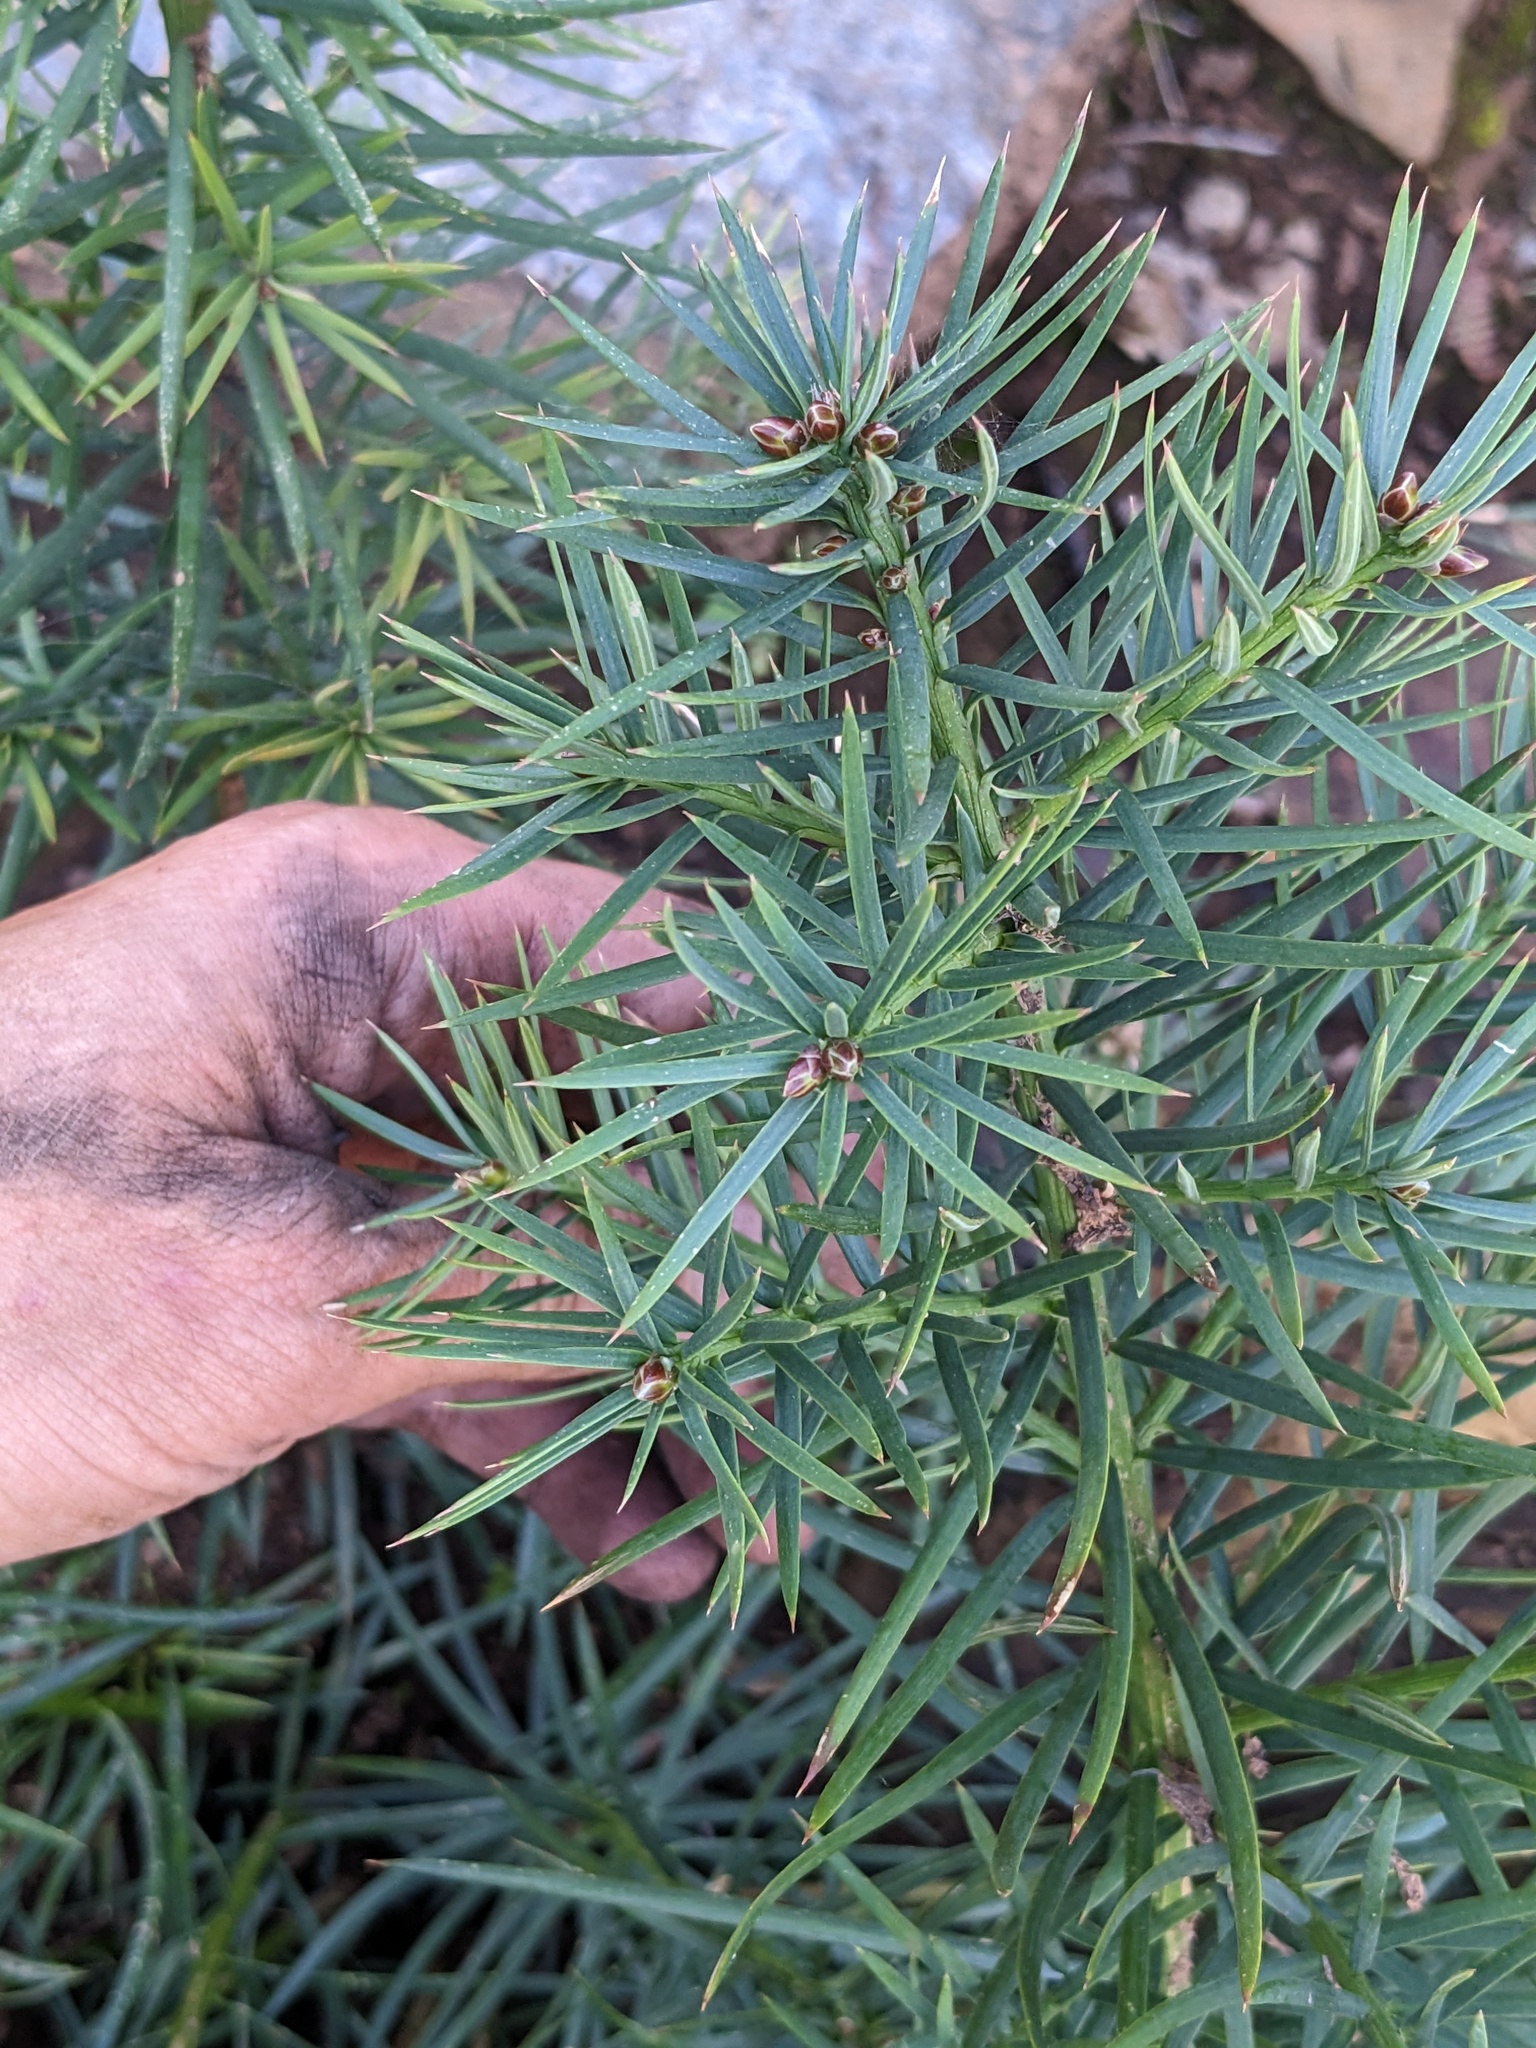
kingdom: Plantae
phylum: Tracheophyta
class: Pinopsida
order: Pinales
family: Taxaceae
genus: Torreya
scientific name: Torreya californica
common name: California torreya
